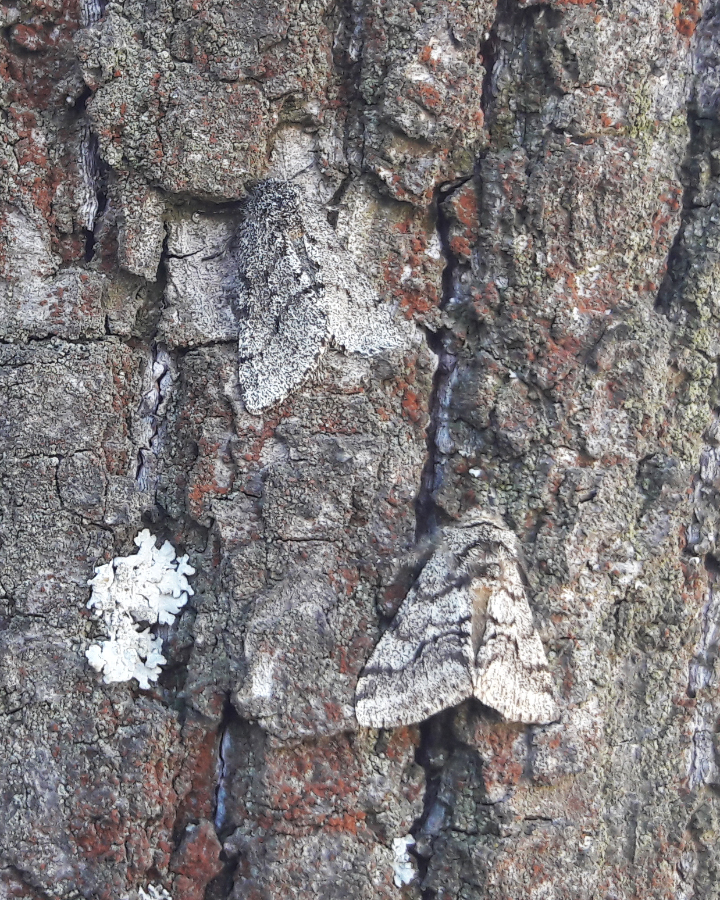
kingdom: Animalia
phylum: Arthropoda
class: Insecta
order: Lepidoptera
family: Geometridae
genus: Lycia
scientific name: Lycia hirtaria
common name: Brindled beauty
